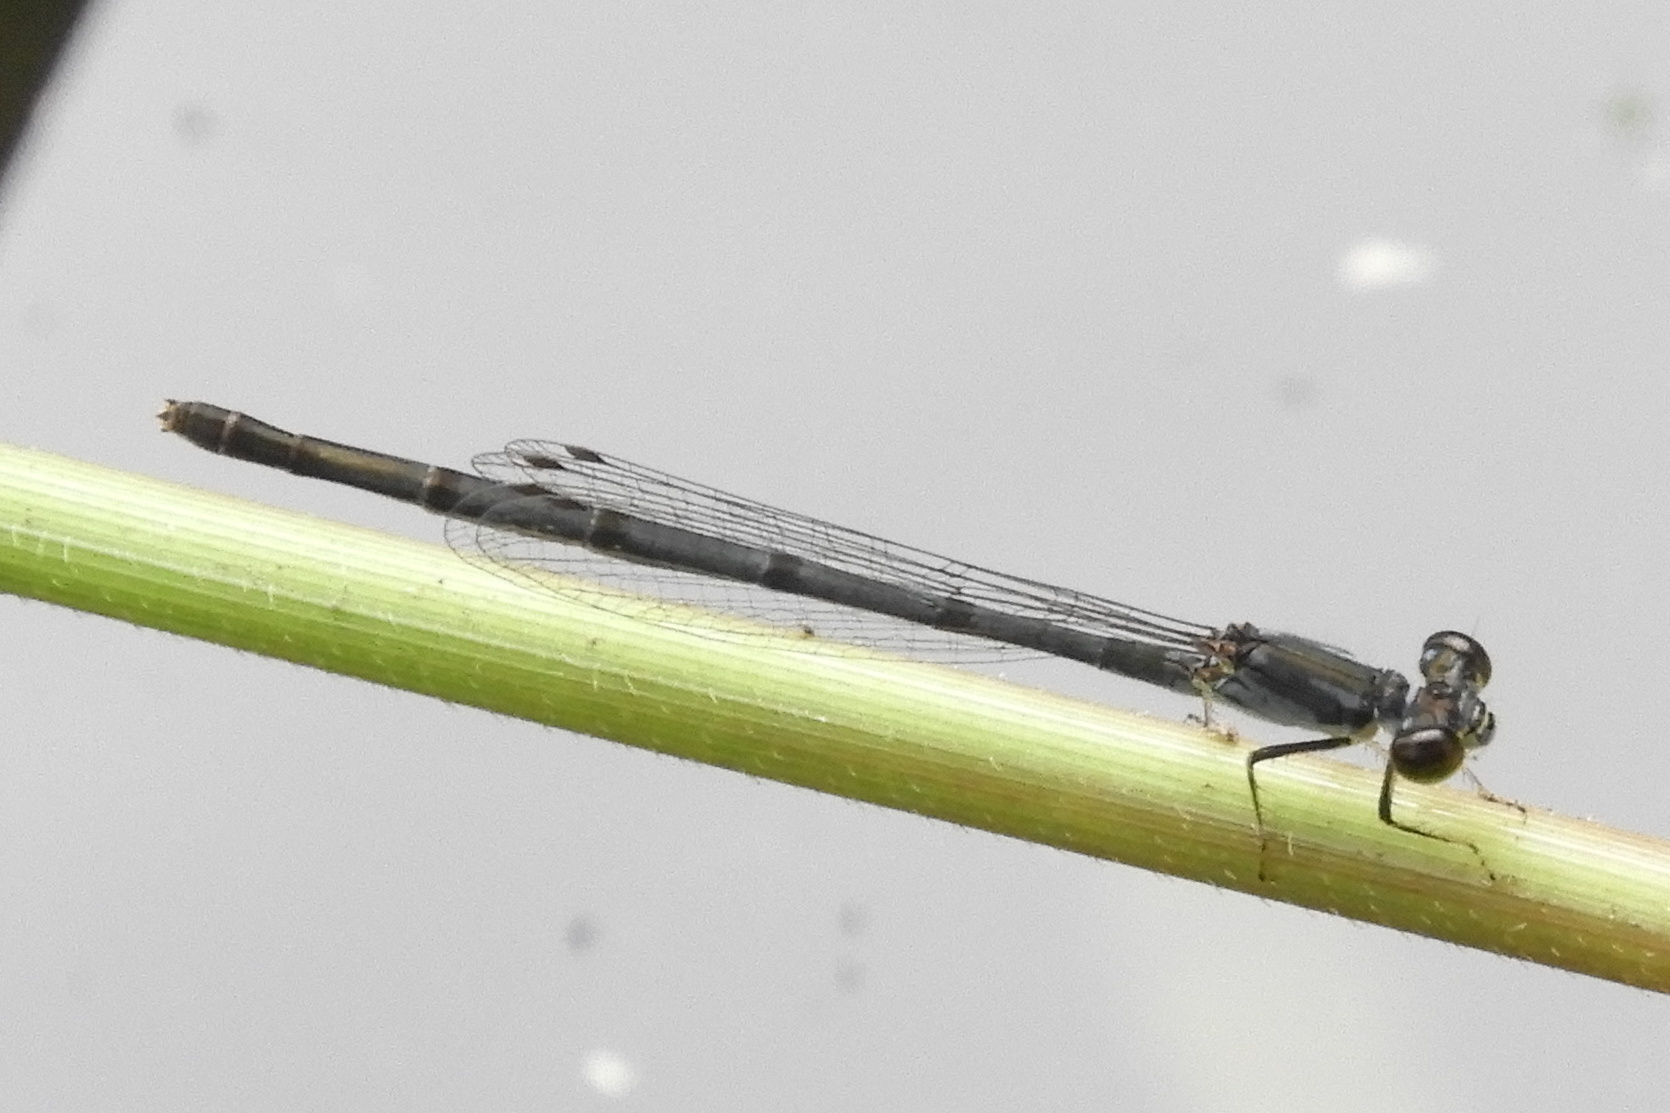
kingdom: Animalia
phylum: Arthropoda
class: Insecta
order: Odonata
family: Coenagrionidae
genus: Ischnura
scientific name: Ischnura posita
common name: Fragile forktail
